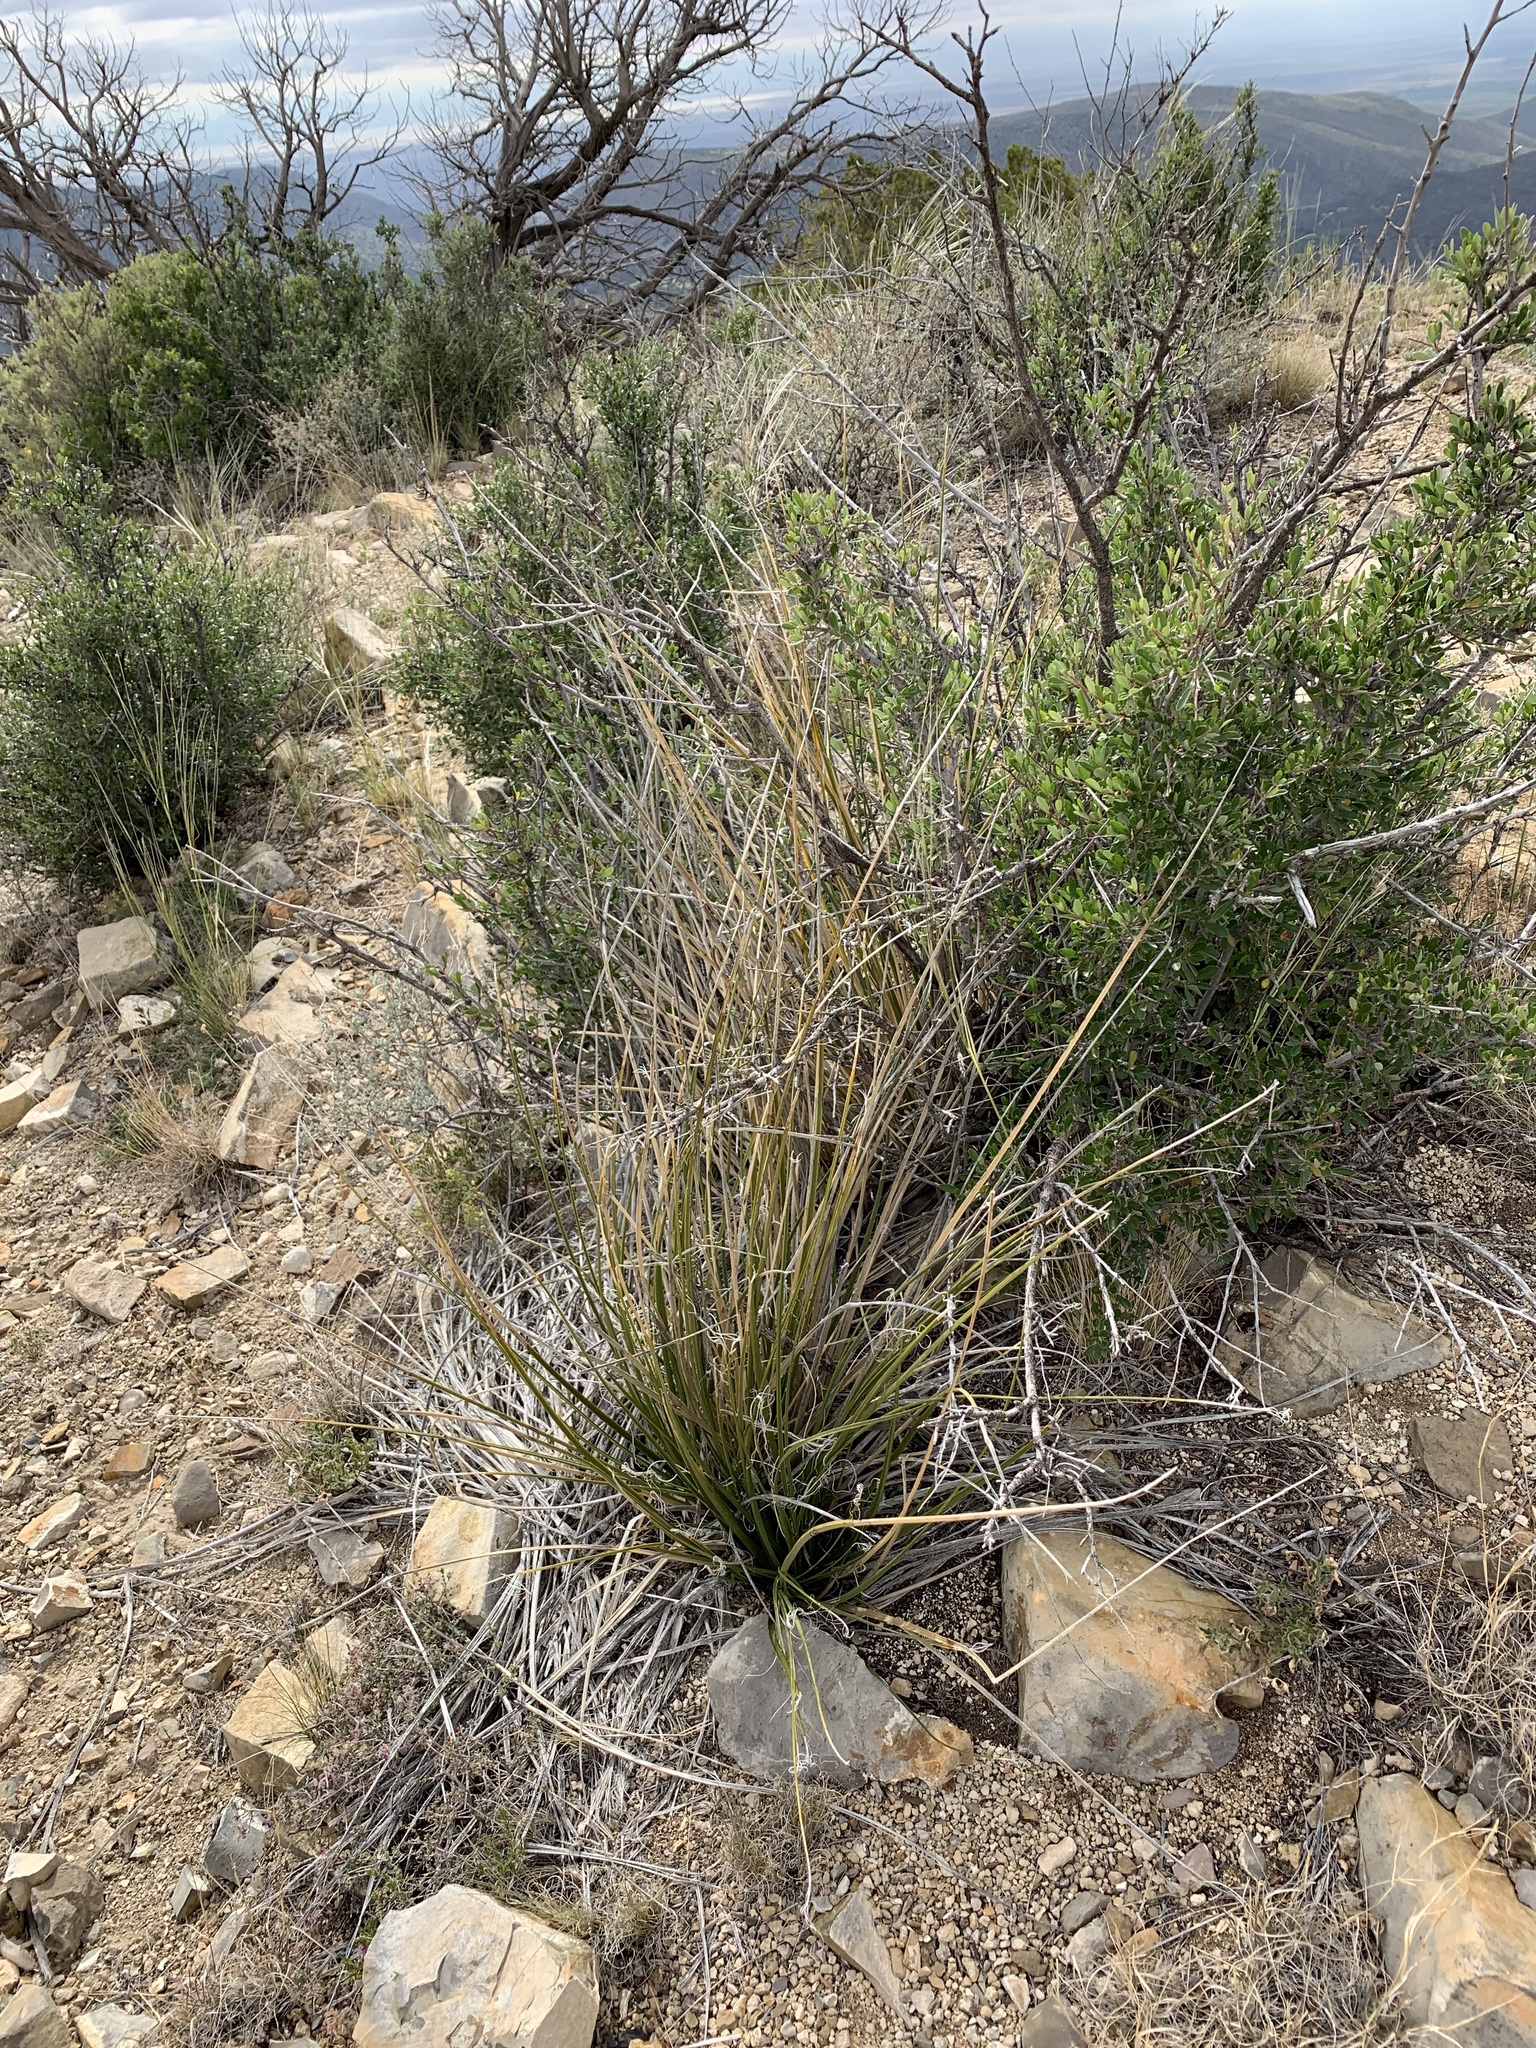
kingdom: Plantae
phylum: Tracheophyta
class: Liliopsida
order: Asparagales
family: Asparagaceae
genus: Nolina
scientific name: Nolina microcarpa
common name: Bear-grass
